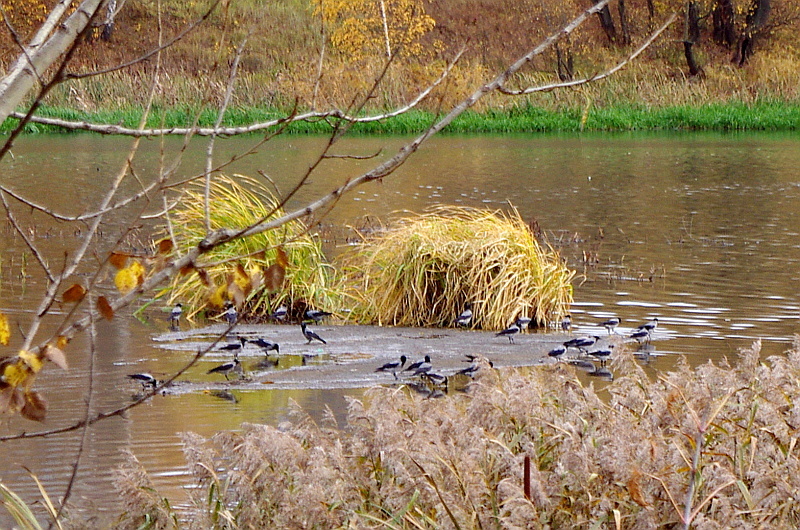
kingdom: Animalia
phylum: Chordata
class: Aves
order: Passeriformes
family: Corvidae
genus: Corvus
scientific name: Corvus cornix
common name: Hooded crow
